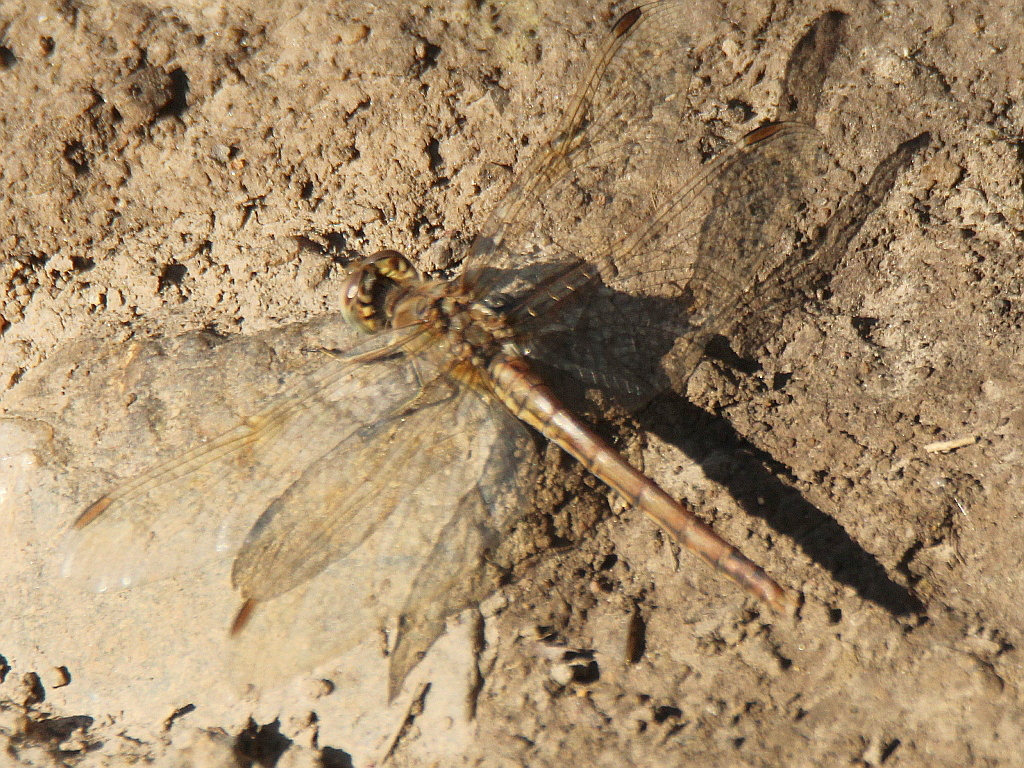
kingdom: Animalia
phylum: Arthropoda
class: Insecta
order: Odonata
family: Libellulidae
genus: Sympetrum
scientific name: Sympetrum vulgatum
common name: Vagrant darter
